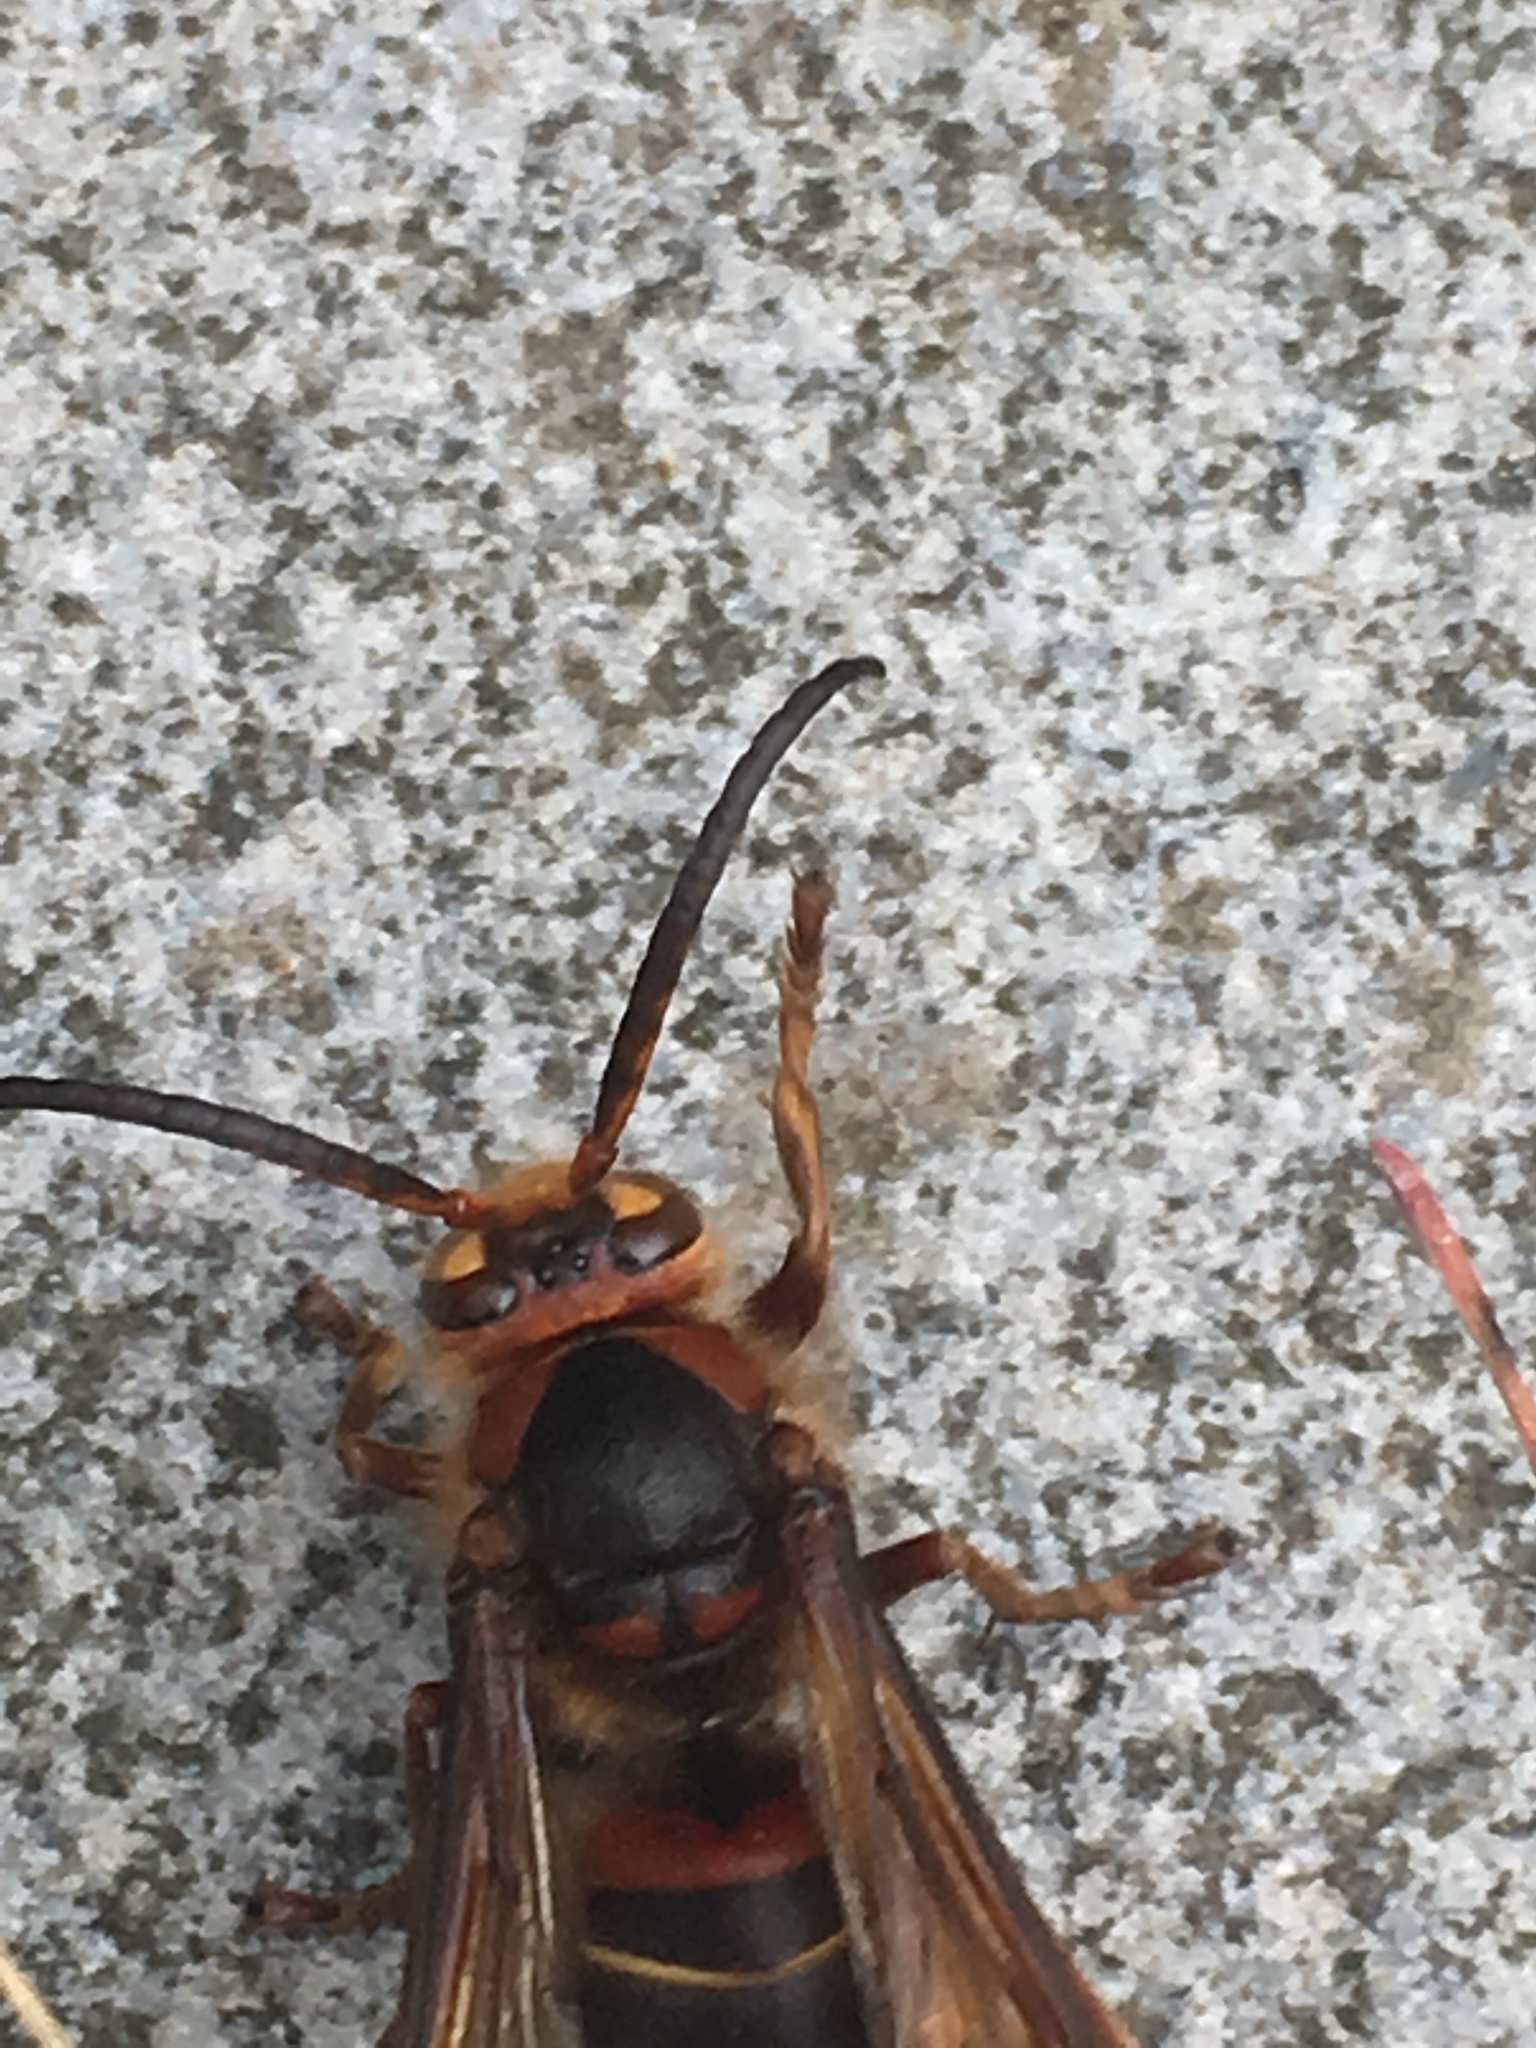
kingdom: Animalia
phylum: Arthropoda
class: Insecta
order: Hymenoptera
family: Vespidae
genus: Vespa
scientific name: Vespa crabro
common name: Hornet
